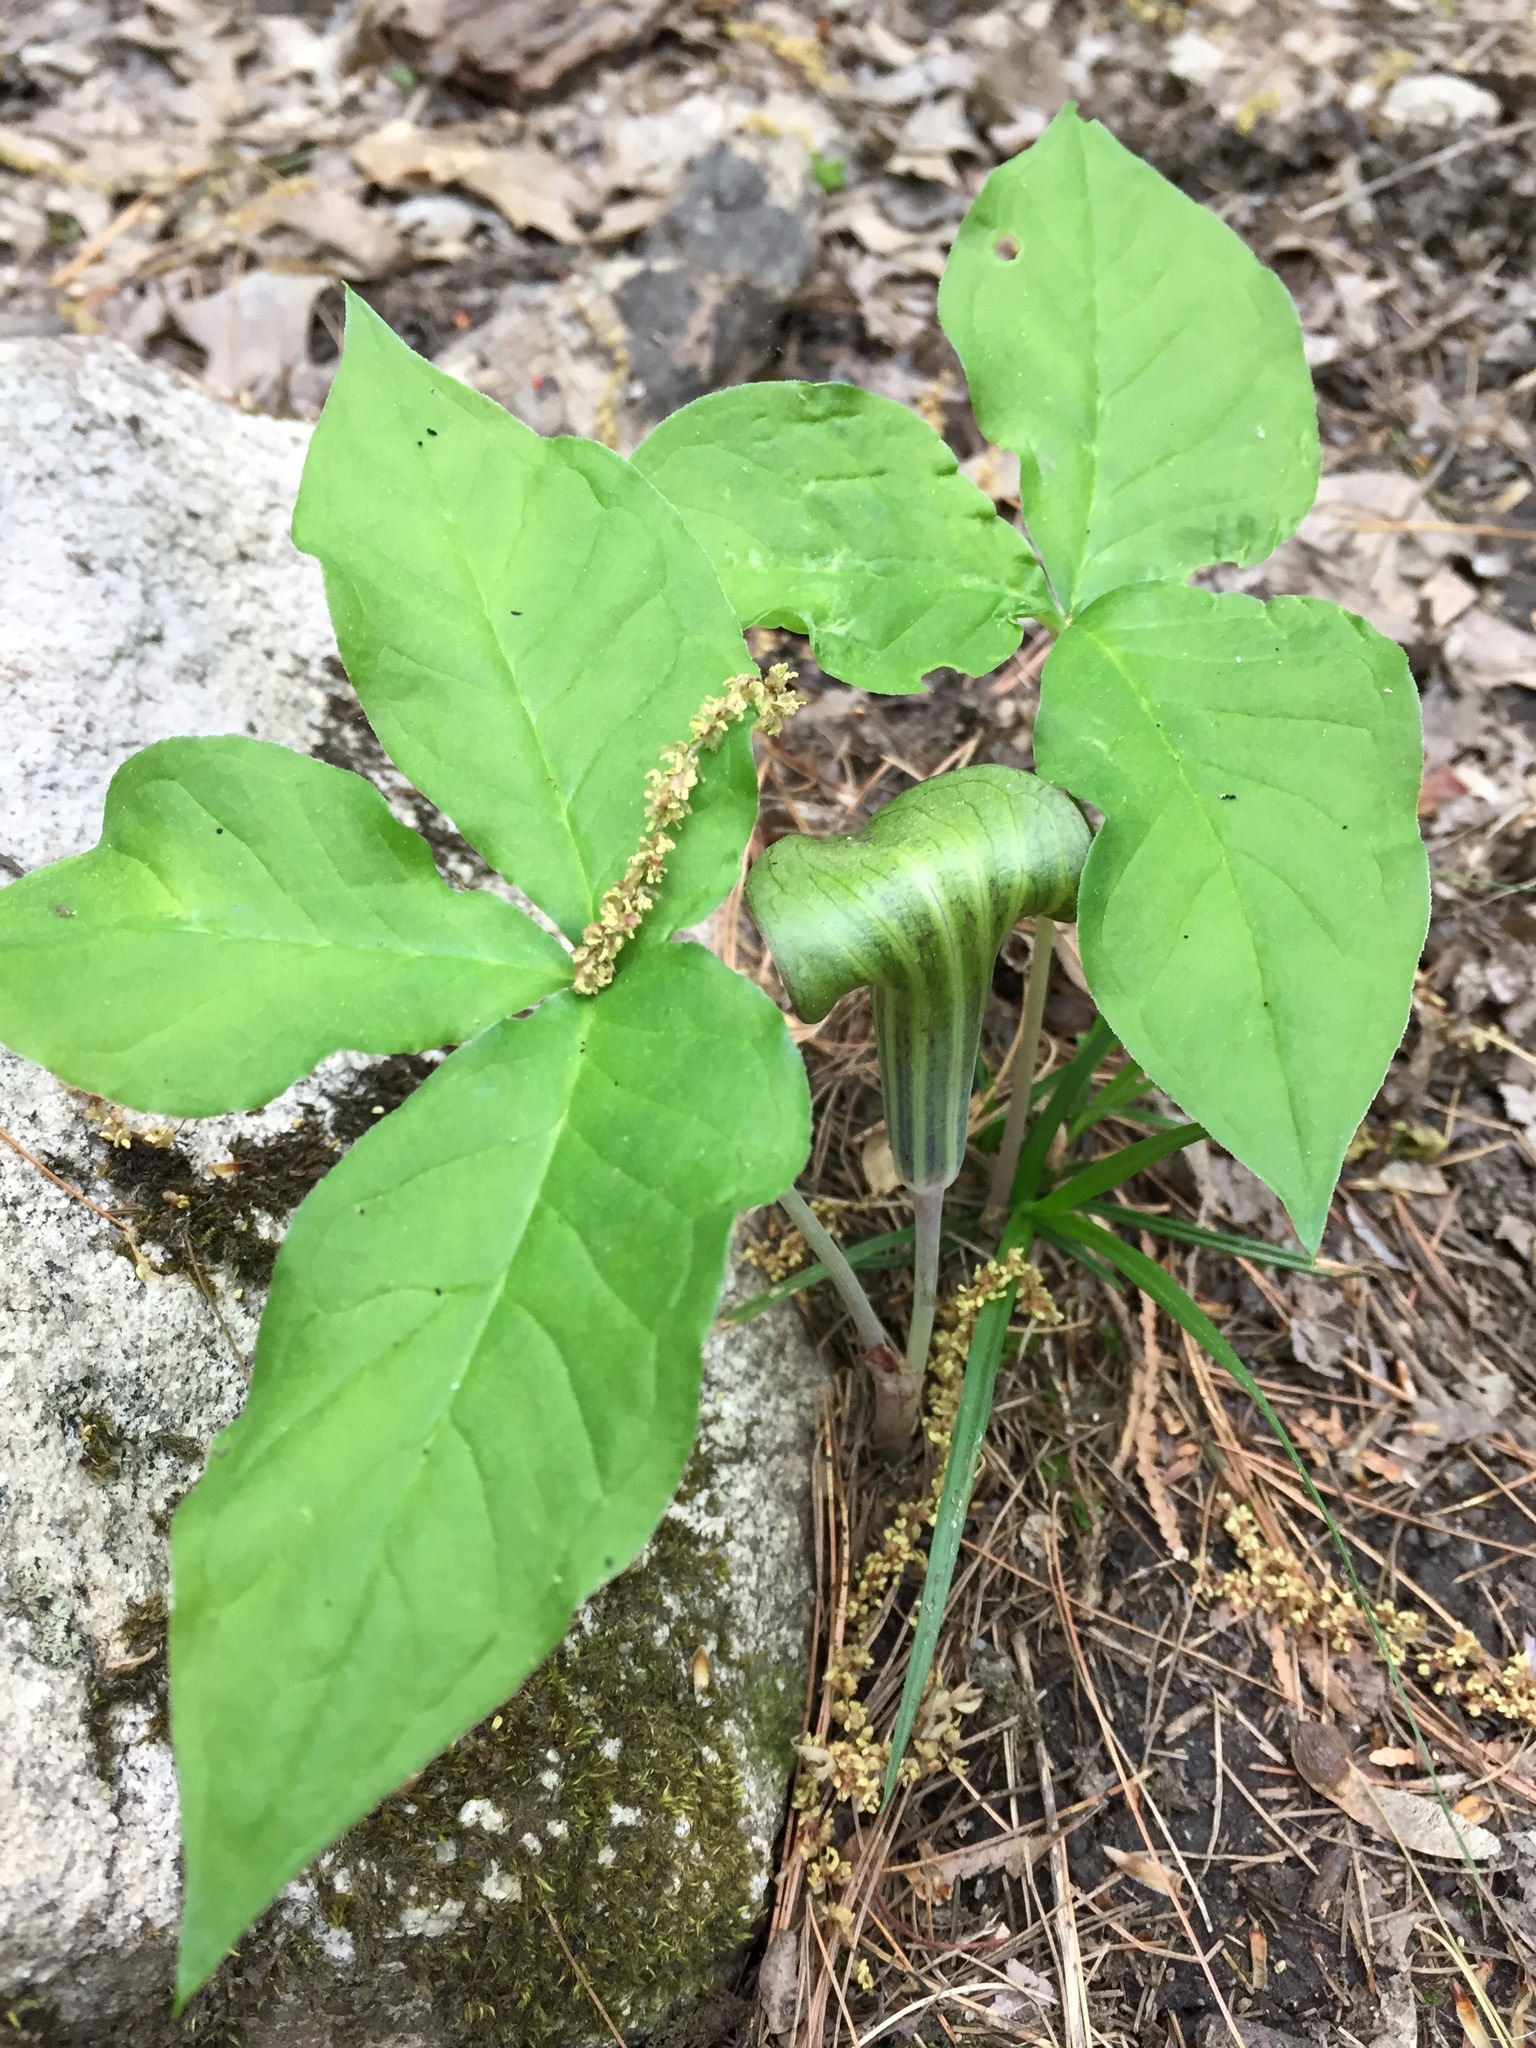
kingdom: Plantae
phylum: Tracheophyta
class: Liliopsida
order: Alismatales
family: Araceae
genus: Arisaema
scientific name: Arisaema triphyllum
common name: Jack-in-the-pulpit
